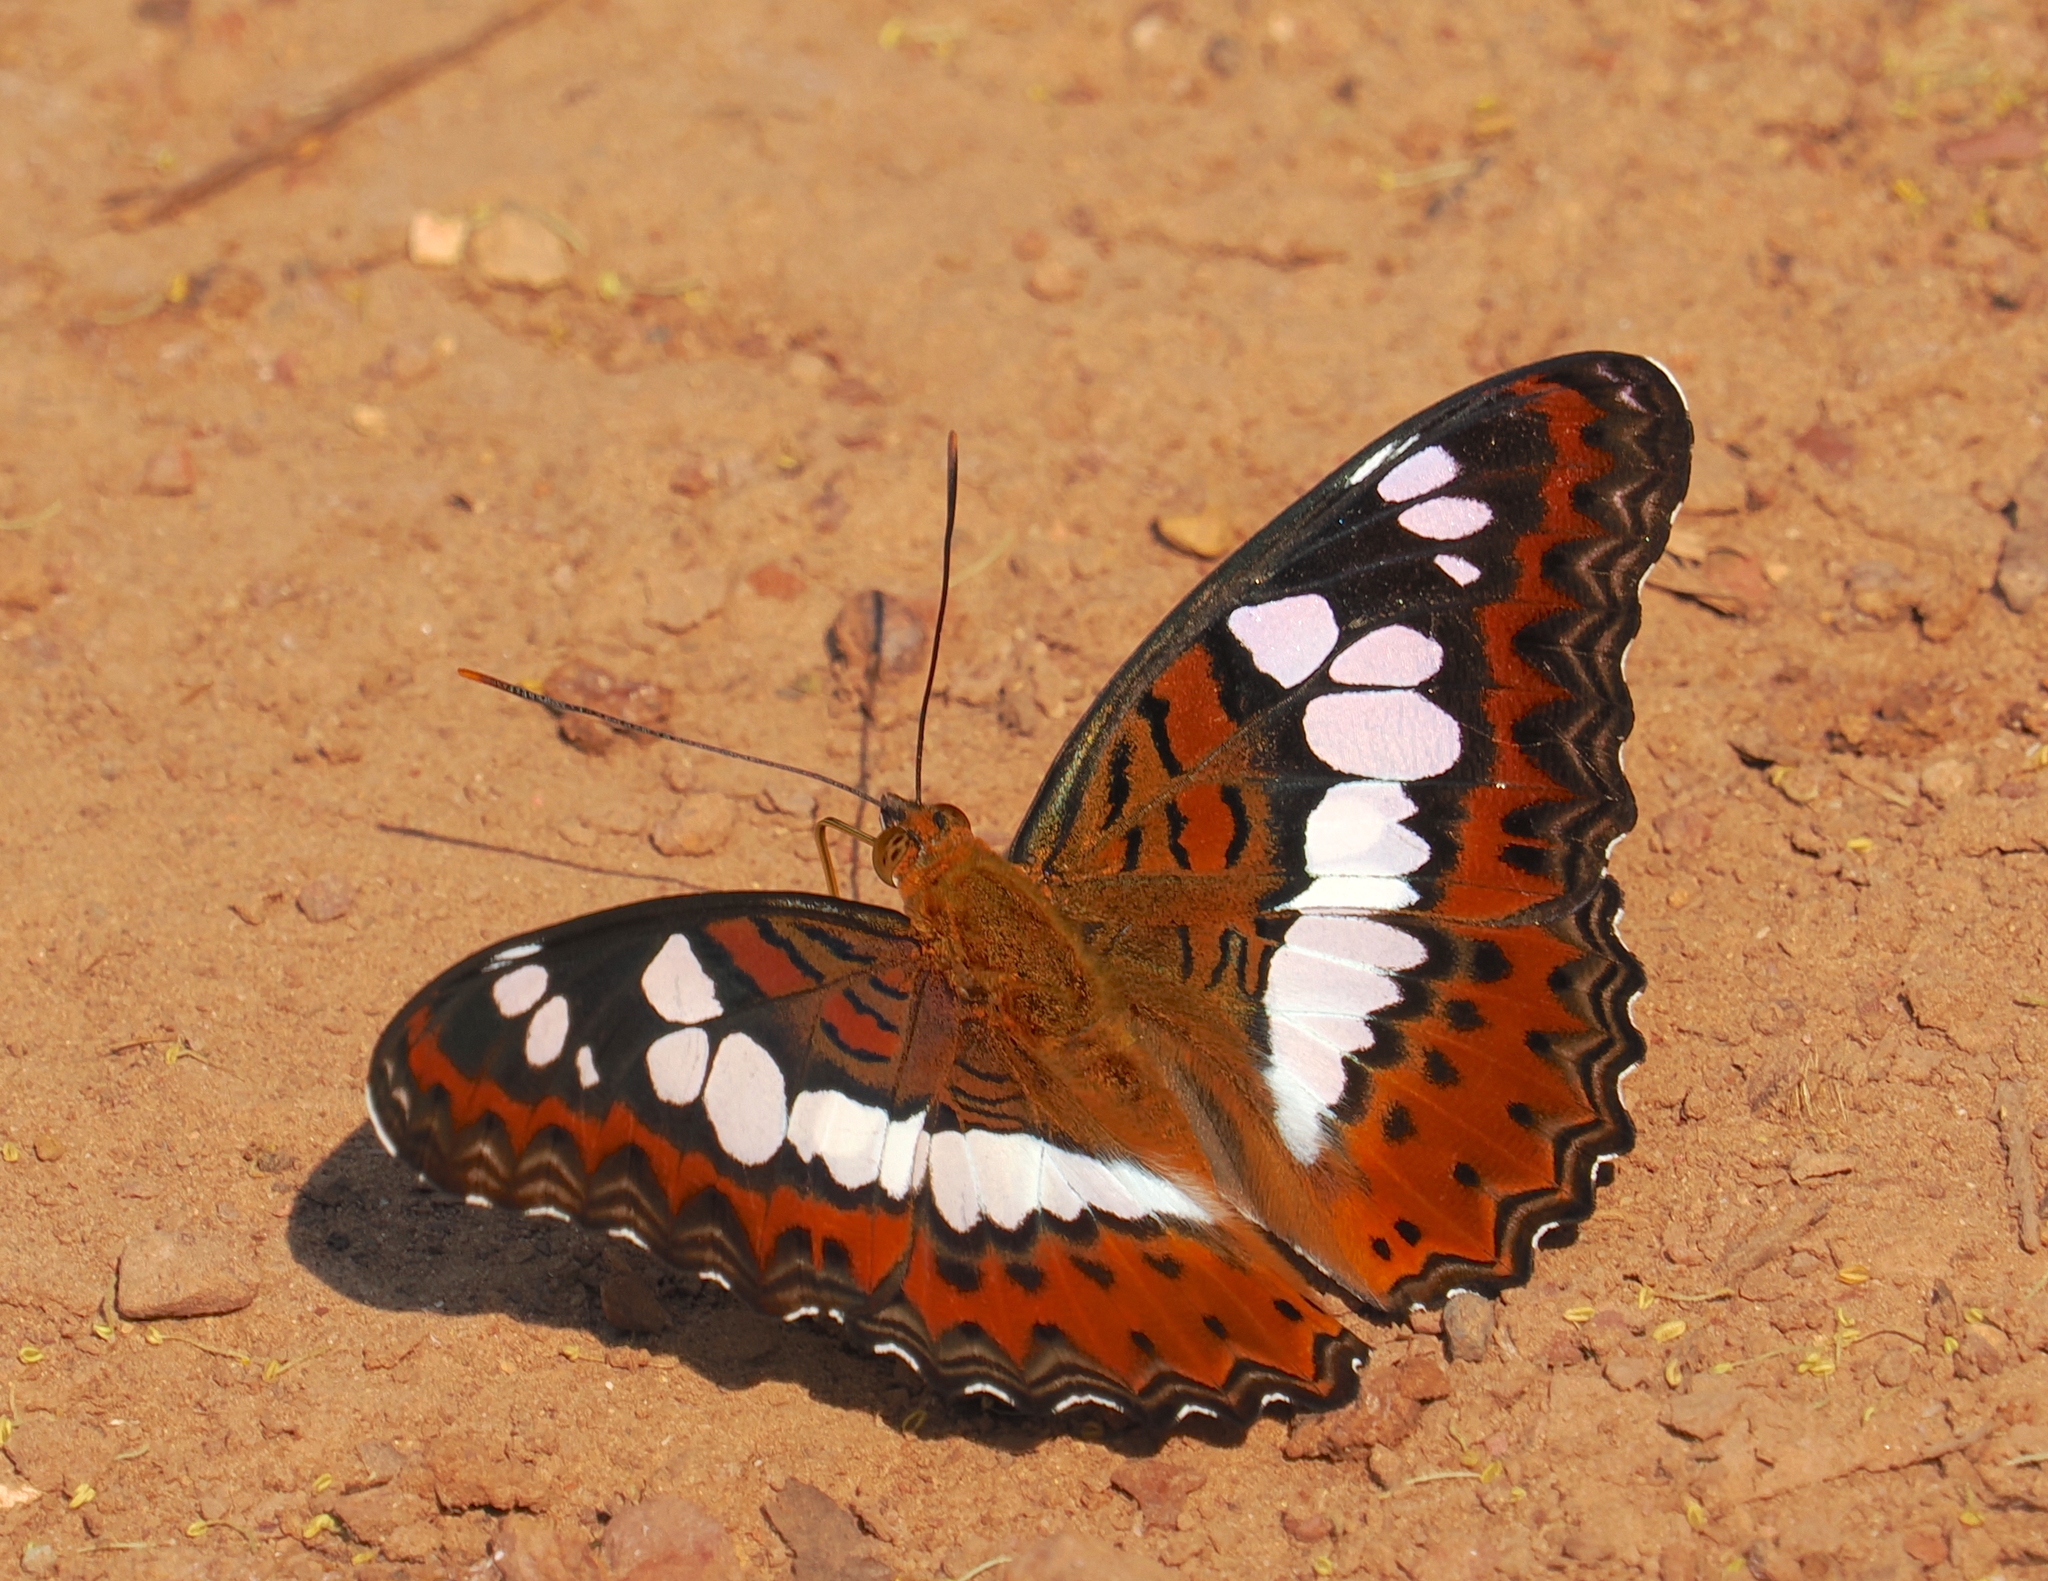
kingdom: Animalia
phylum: Arthropoda
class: Insecta
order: Lepidoptera
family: Nymphalidae
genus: Limenitis
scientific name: Limenitis Moduza procris
